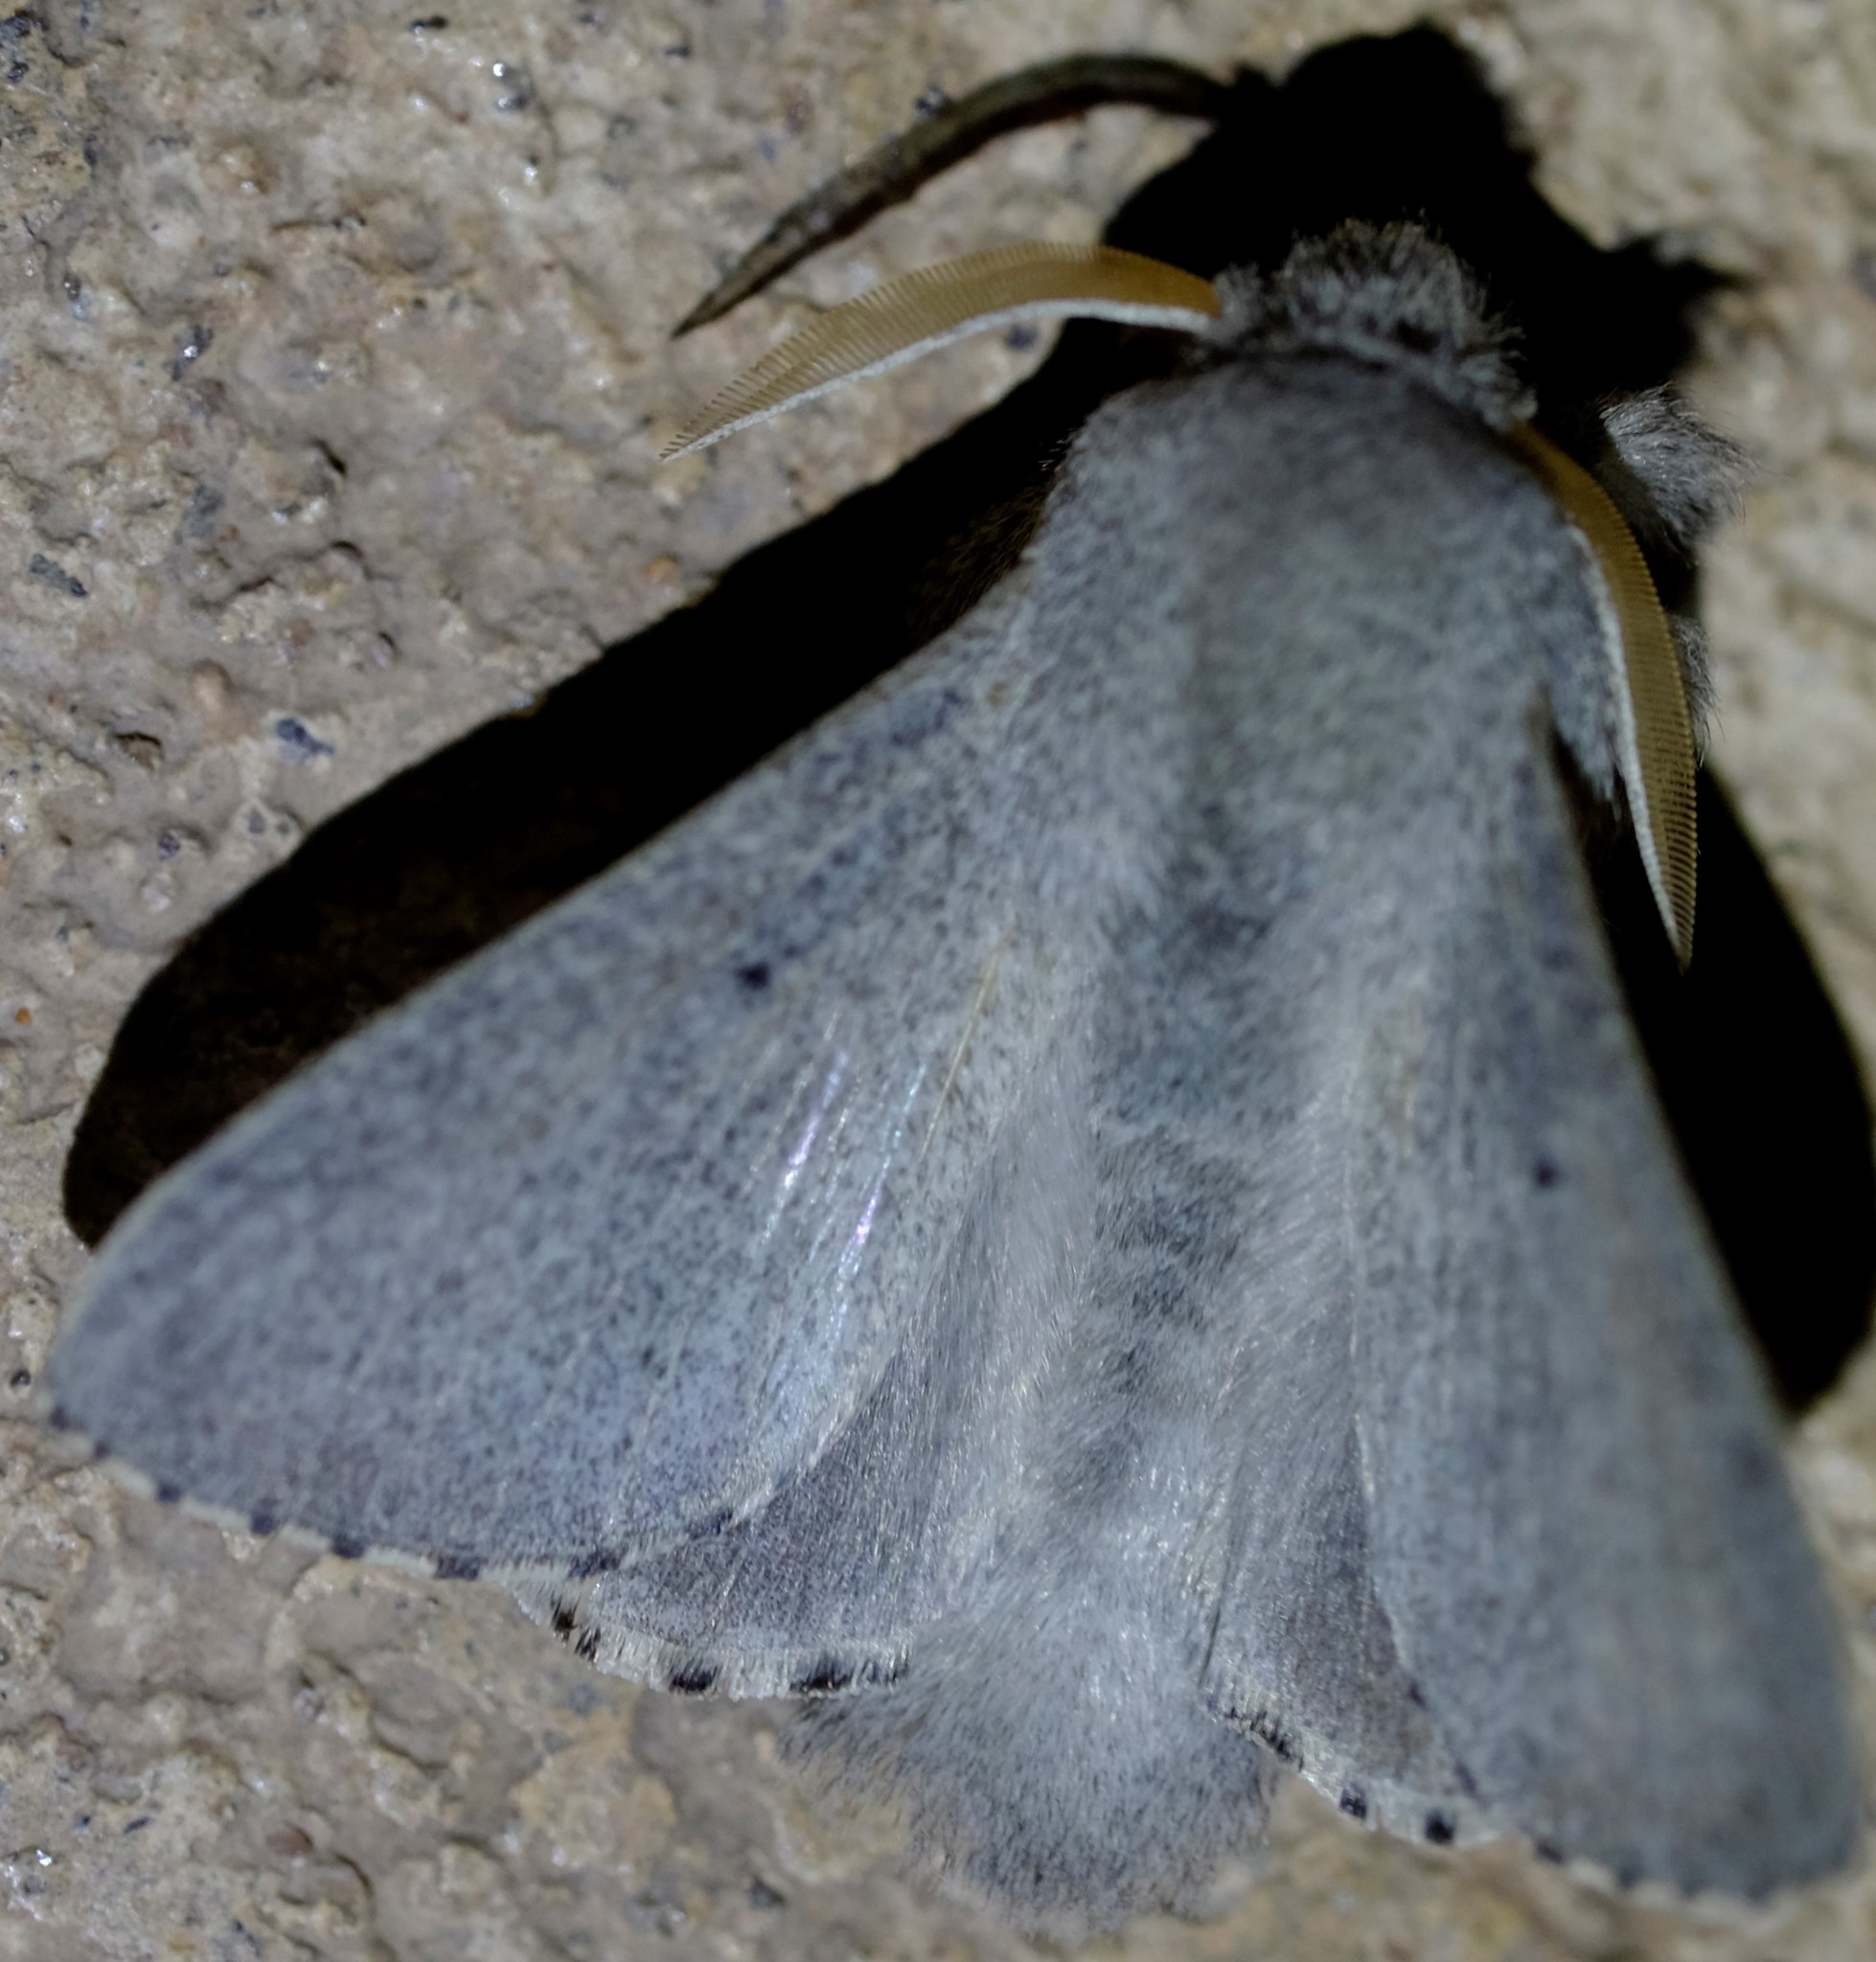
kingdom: Animalia
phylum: Arthropoda
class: Insecta
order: Lepidoptera
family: Lasiocampidae
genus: Symphyta
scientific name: Symphyta psaropis
